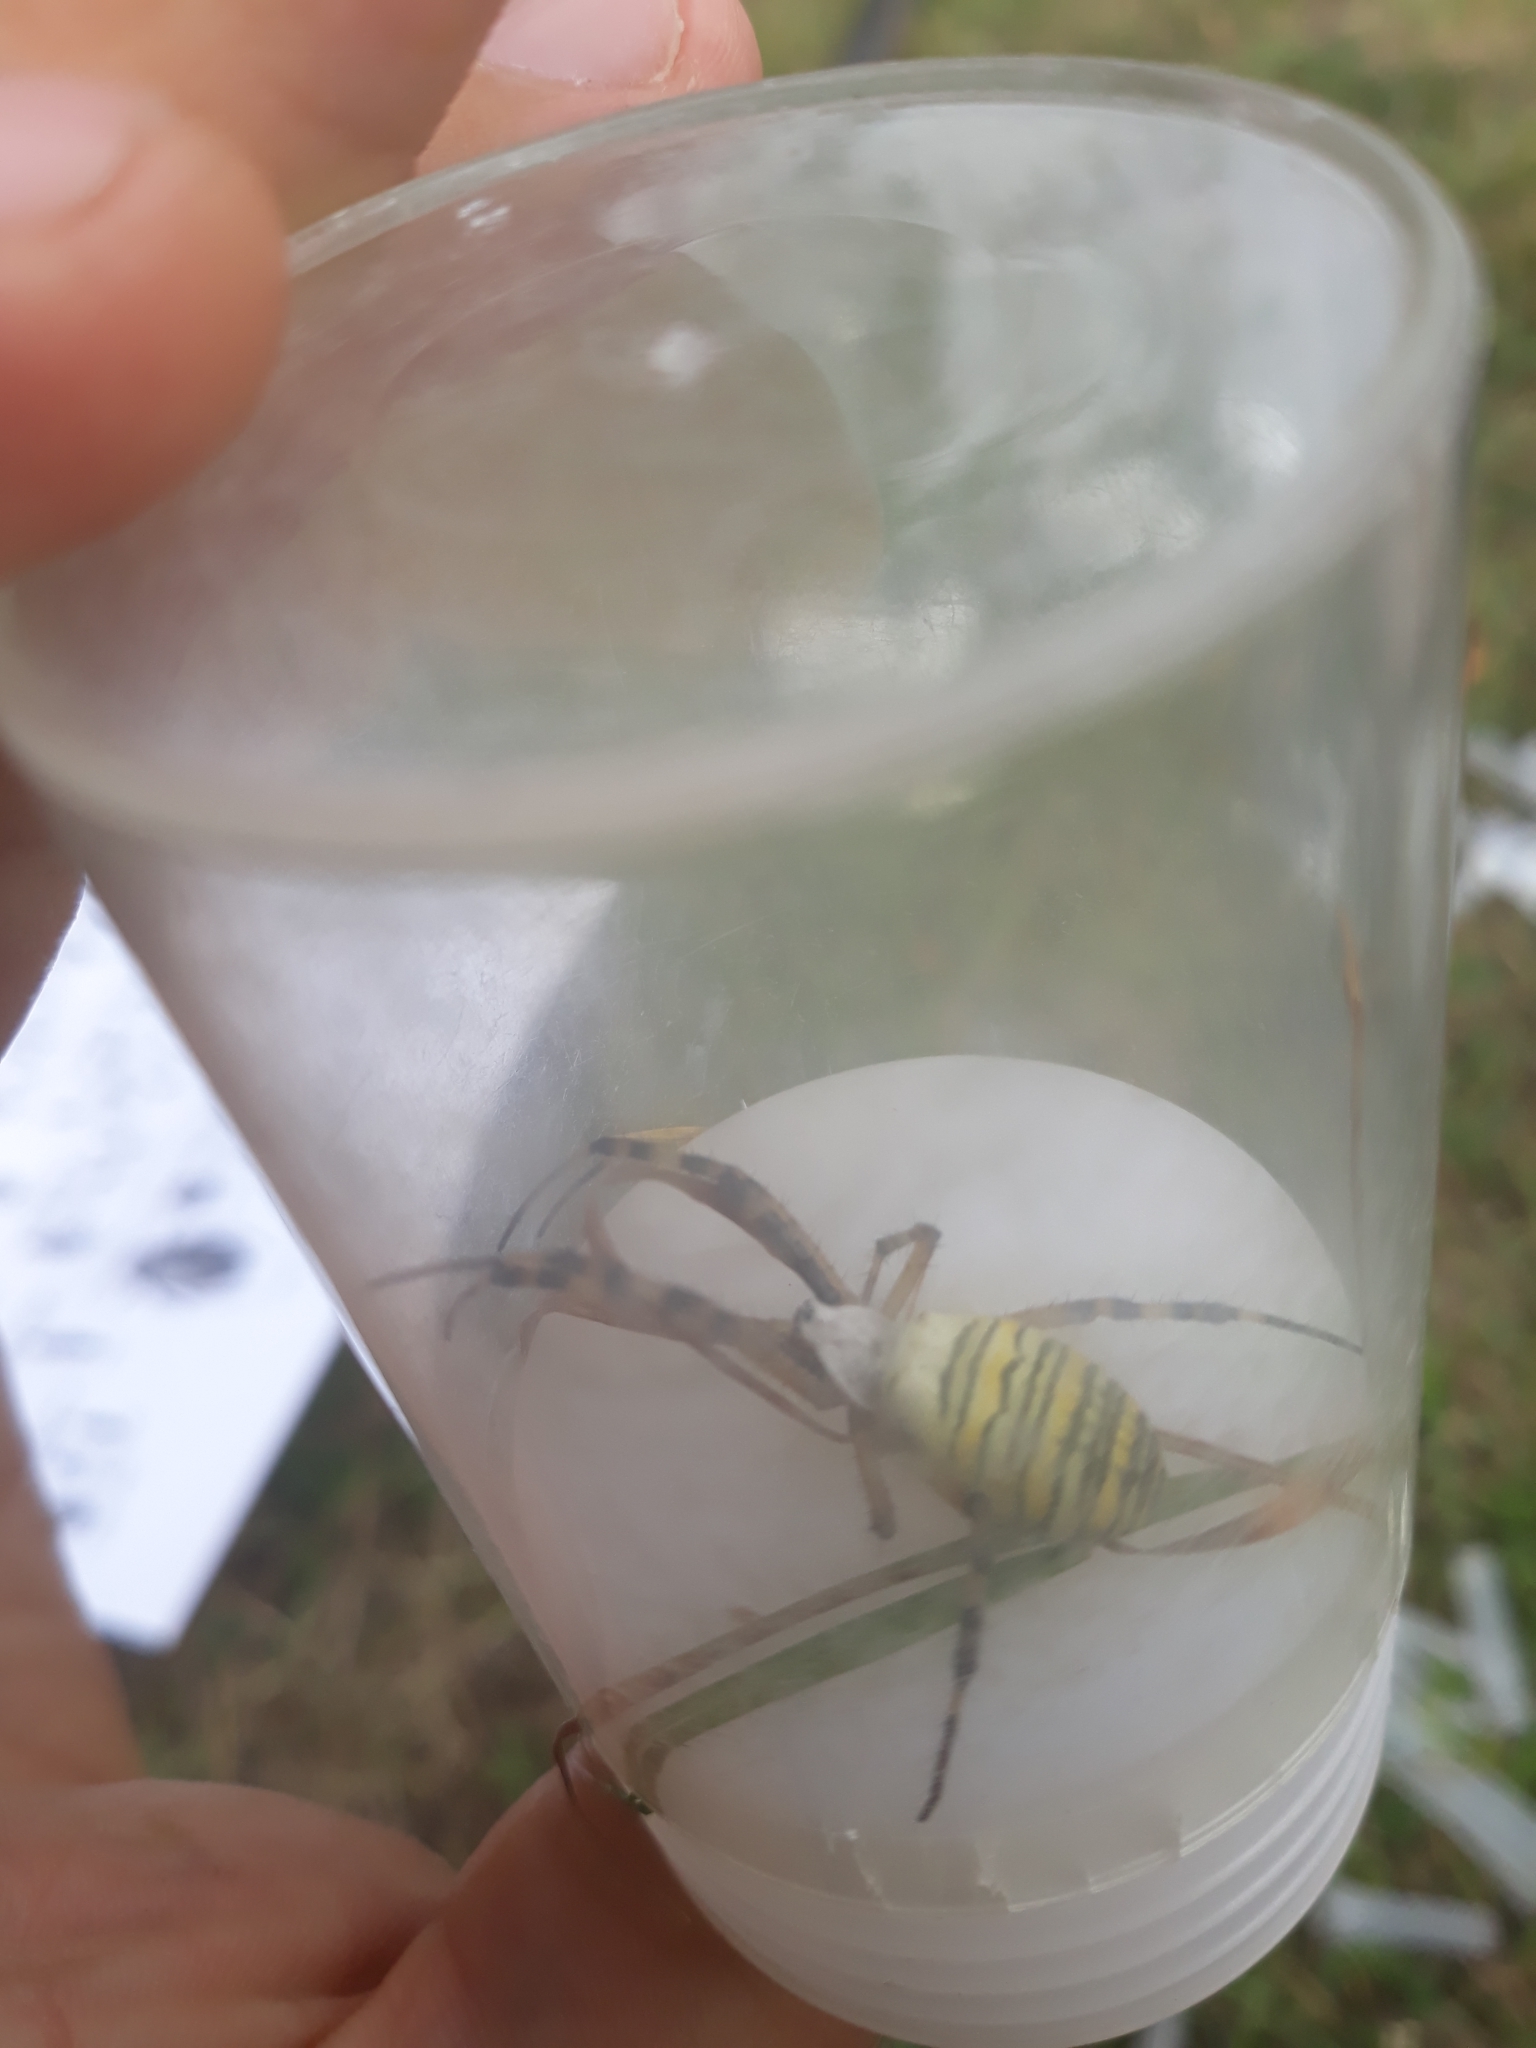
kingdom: Animalia
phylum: Arthropoda
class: Arachnida
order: Araneae
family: Araneidae
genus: Argiope
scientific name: Argiope bruennichi
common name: Wasp spider
